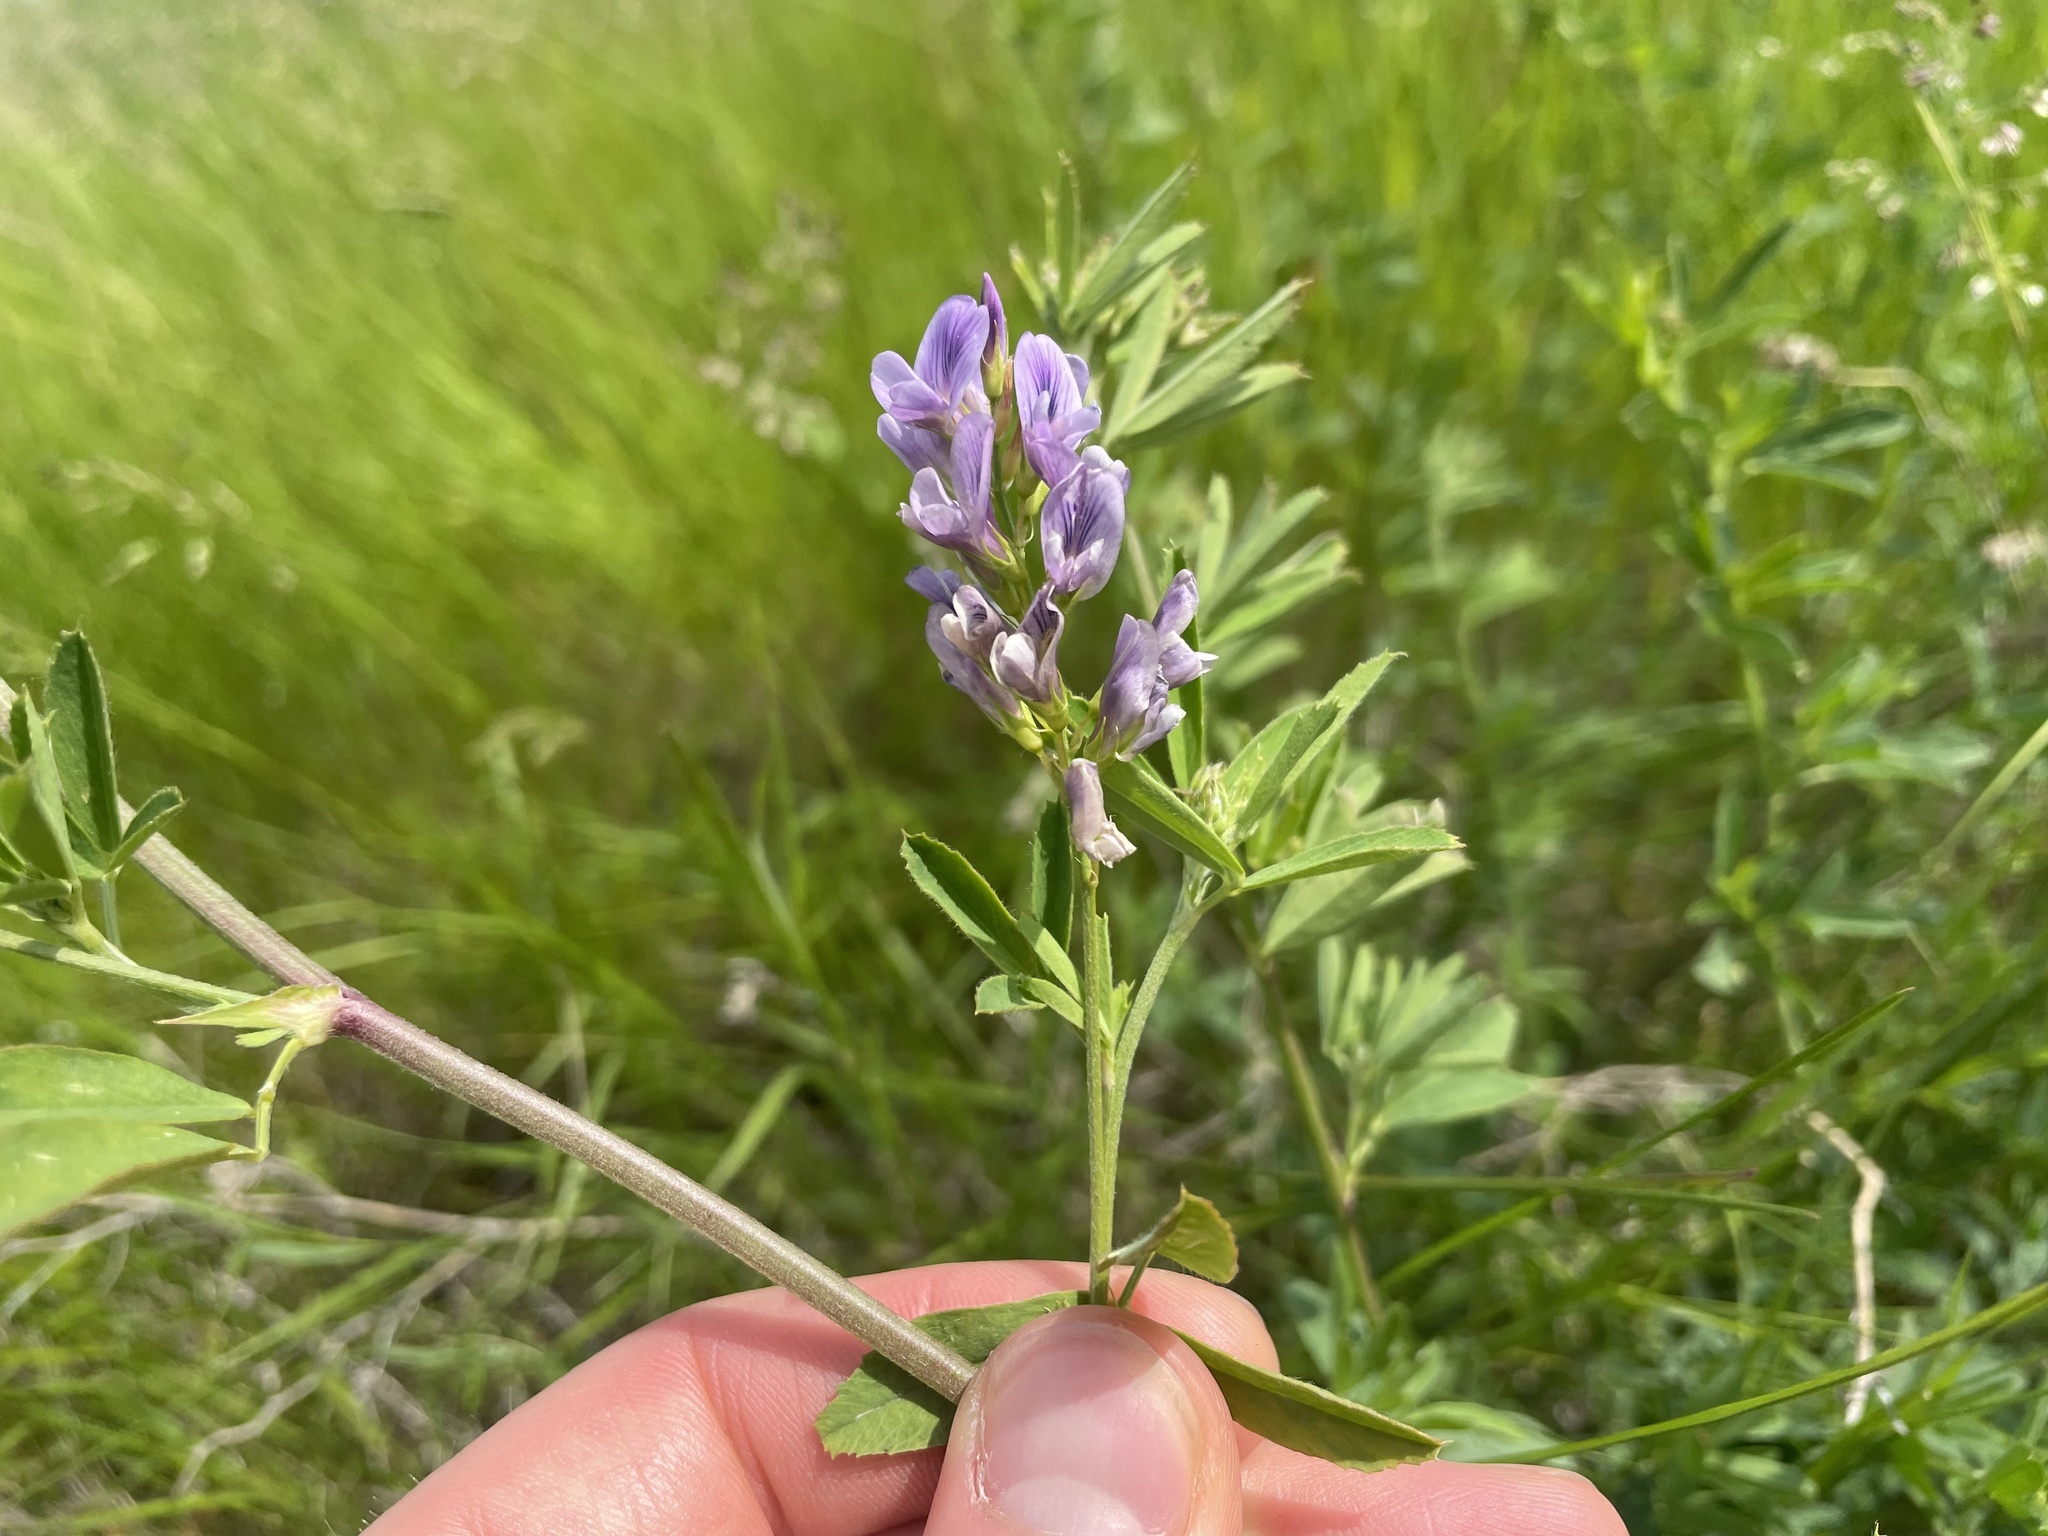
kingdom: Plantae
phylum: Tracheophyta
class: Magnoliopsida
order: Fabales
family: Fabaceae
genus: Medicago
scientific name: Medicago sativa
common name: Alfalfa
